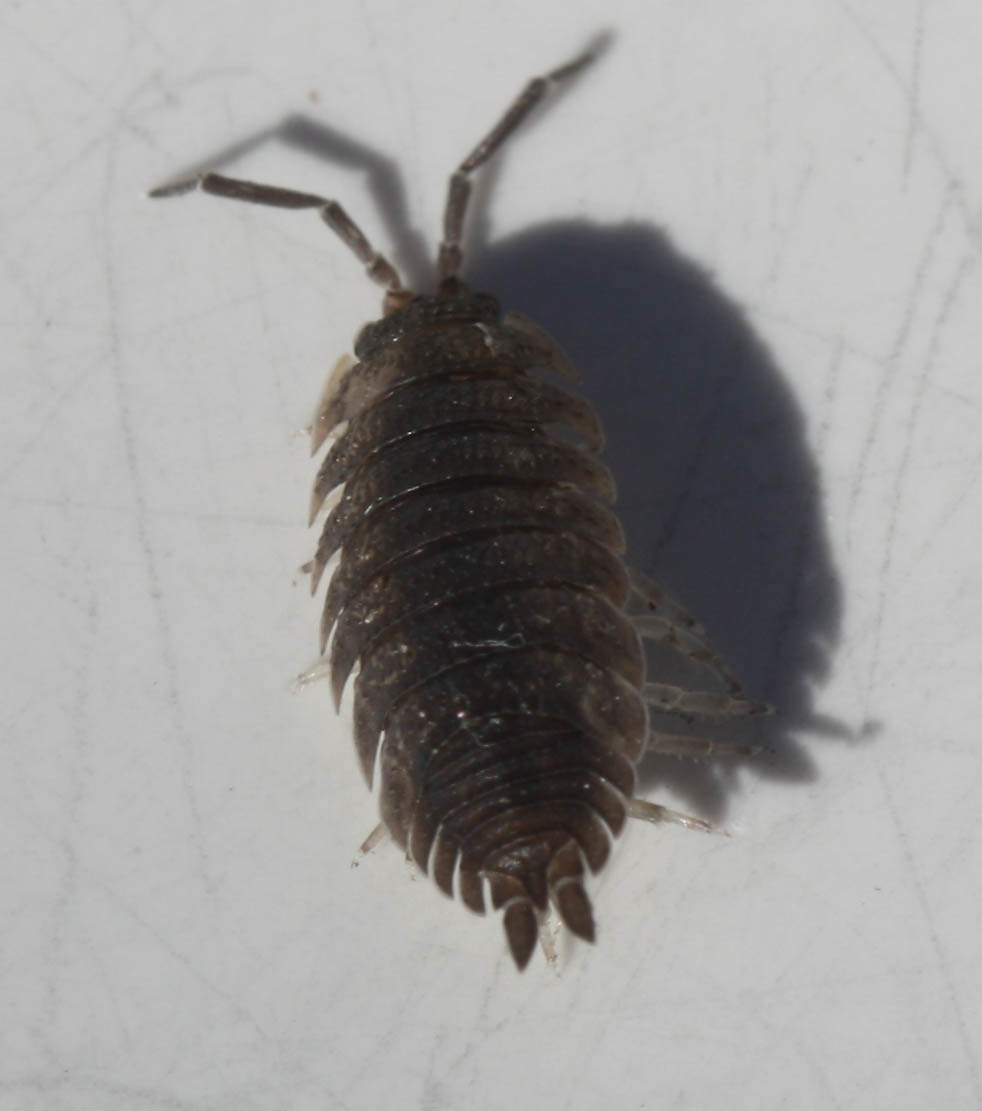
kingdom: Animalia
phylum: Arthropoda
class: Malacostraca
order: Isopoda
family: Porcellionidae
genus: Porcellio
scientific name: Porcellio scaber
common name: Common rough woodlouse
